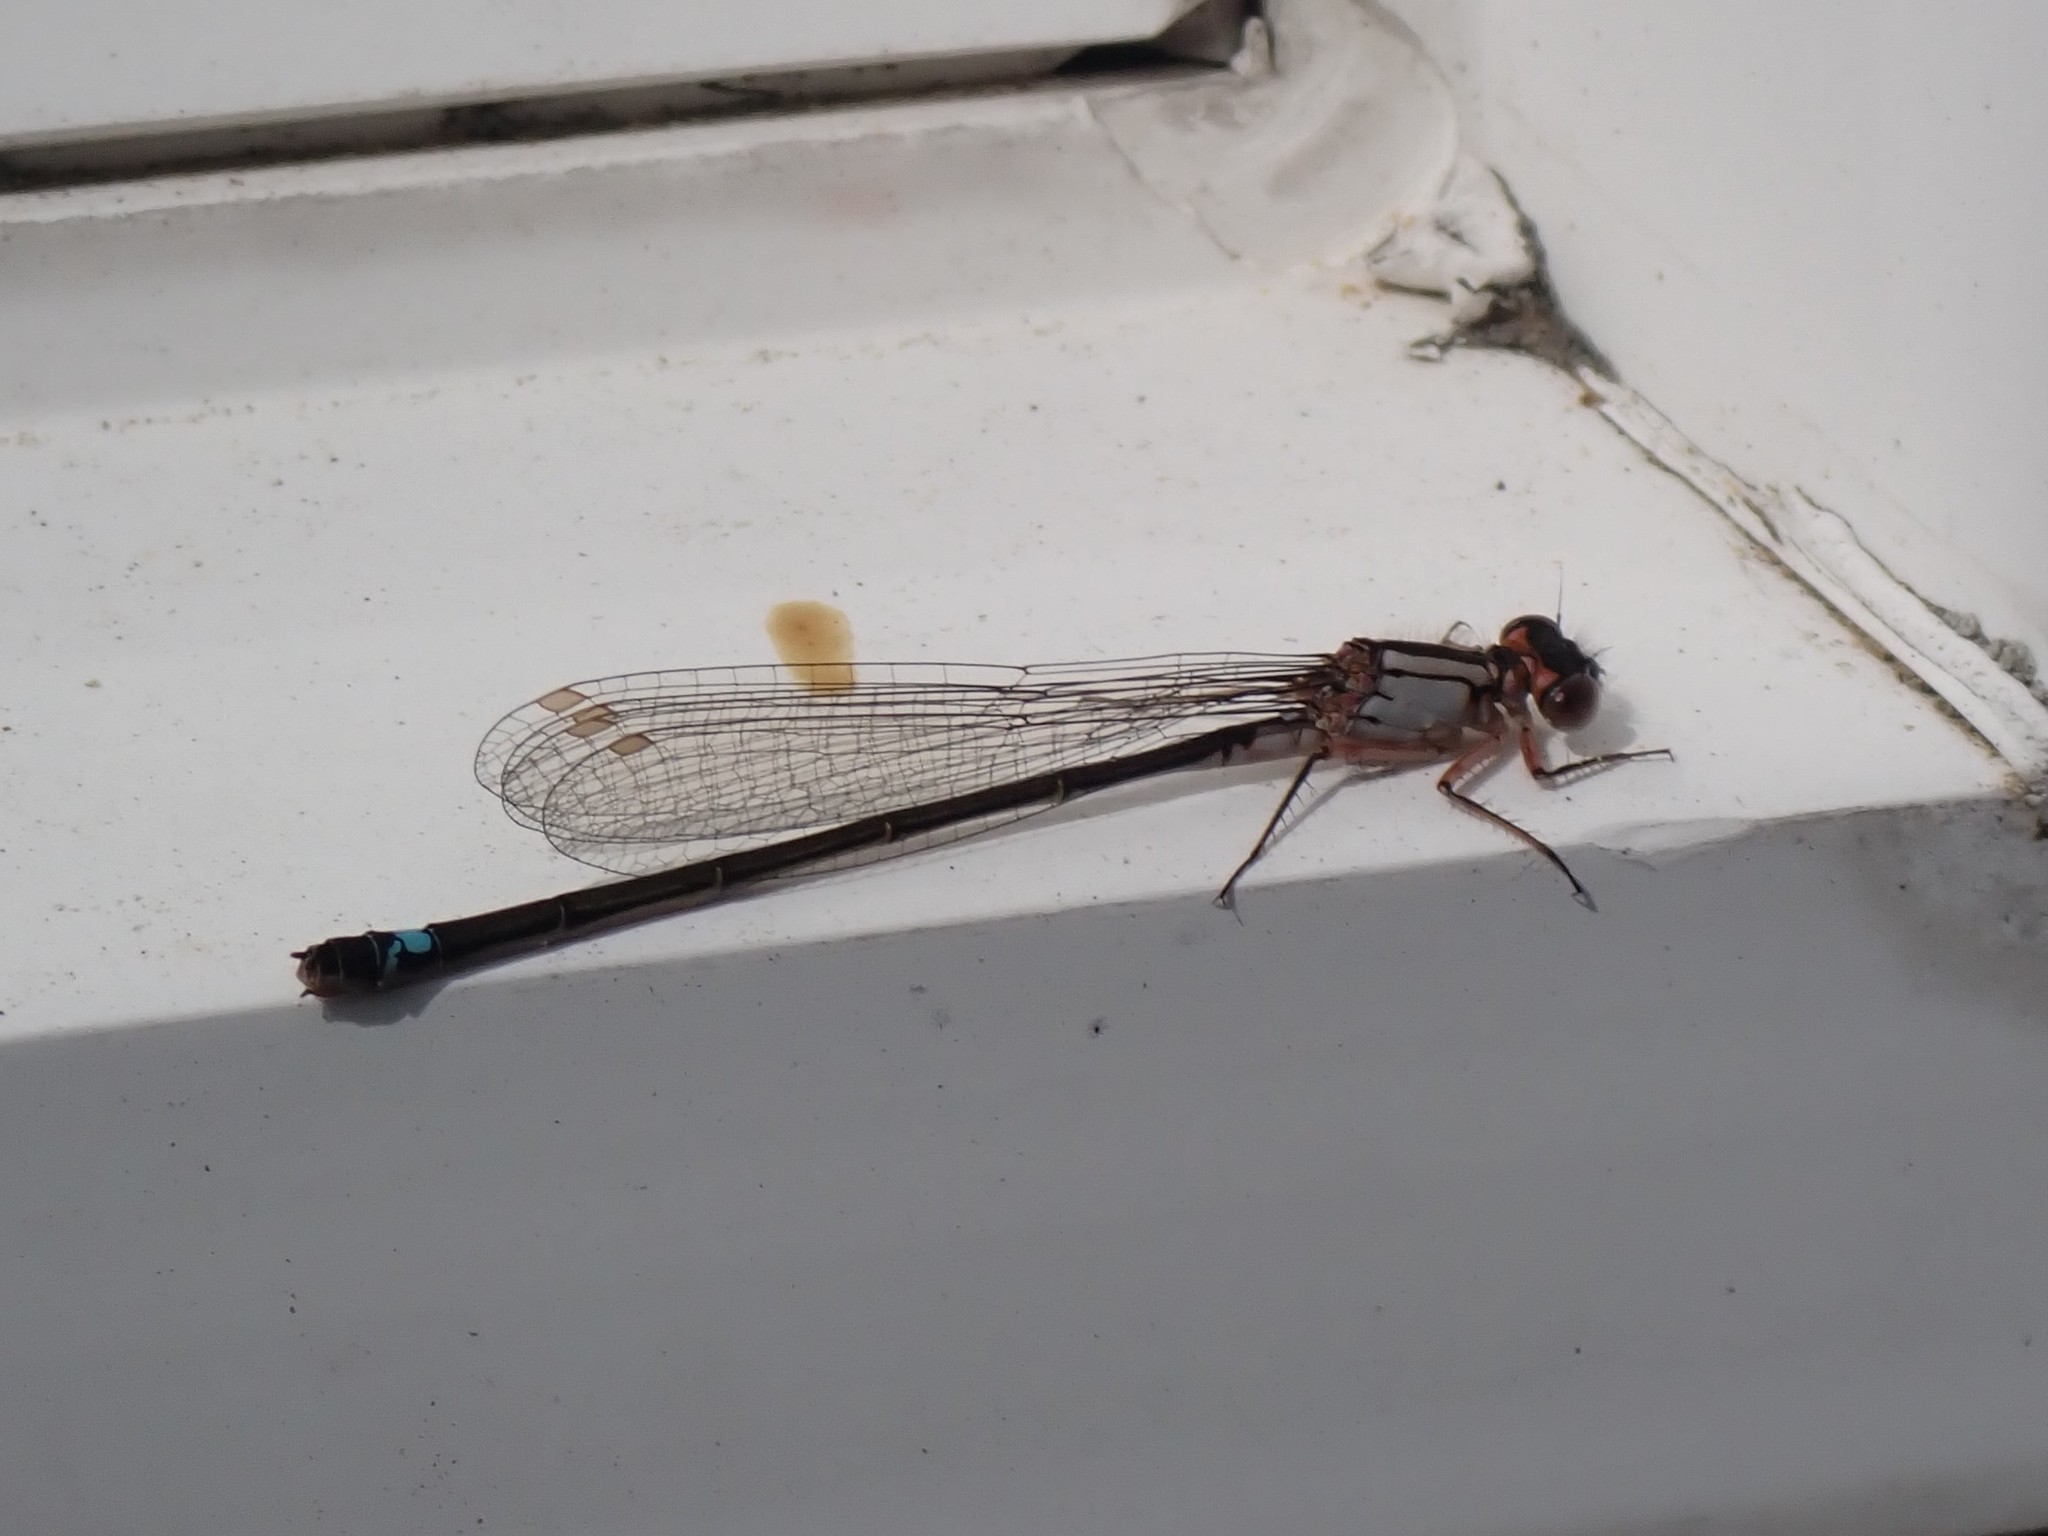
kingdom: Animalia
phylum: Arthropoda
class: Insecta
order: Odonata
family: Coenagrionidae
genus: Ischnura
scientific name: Ischnura cervula
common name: Pacific forktail
